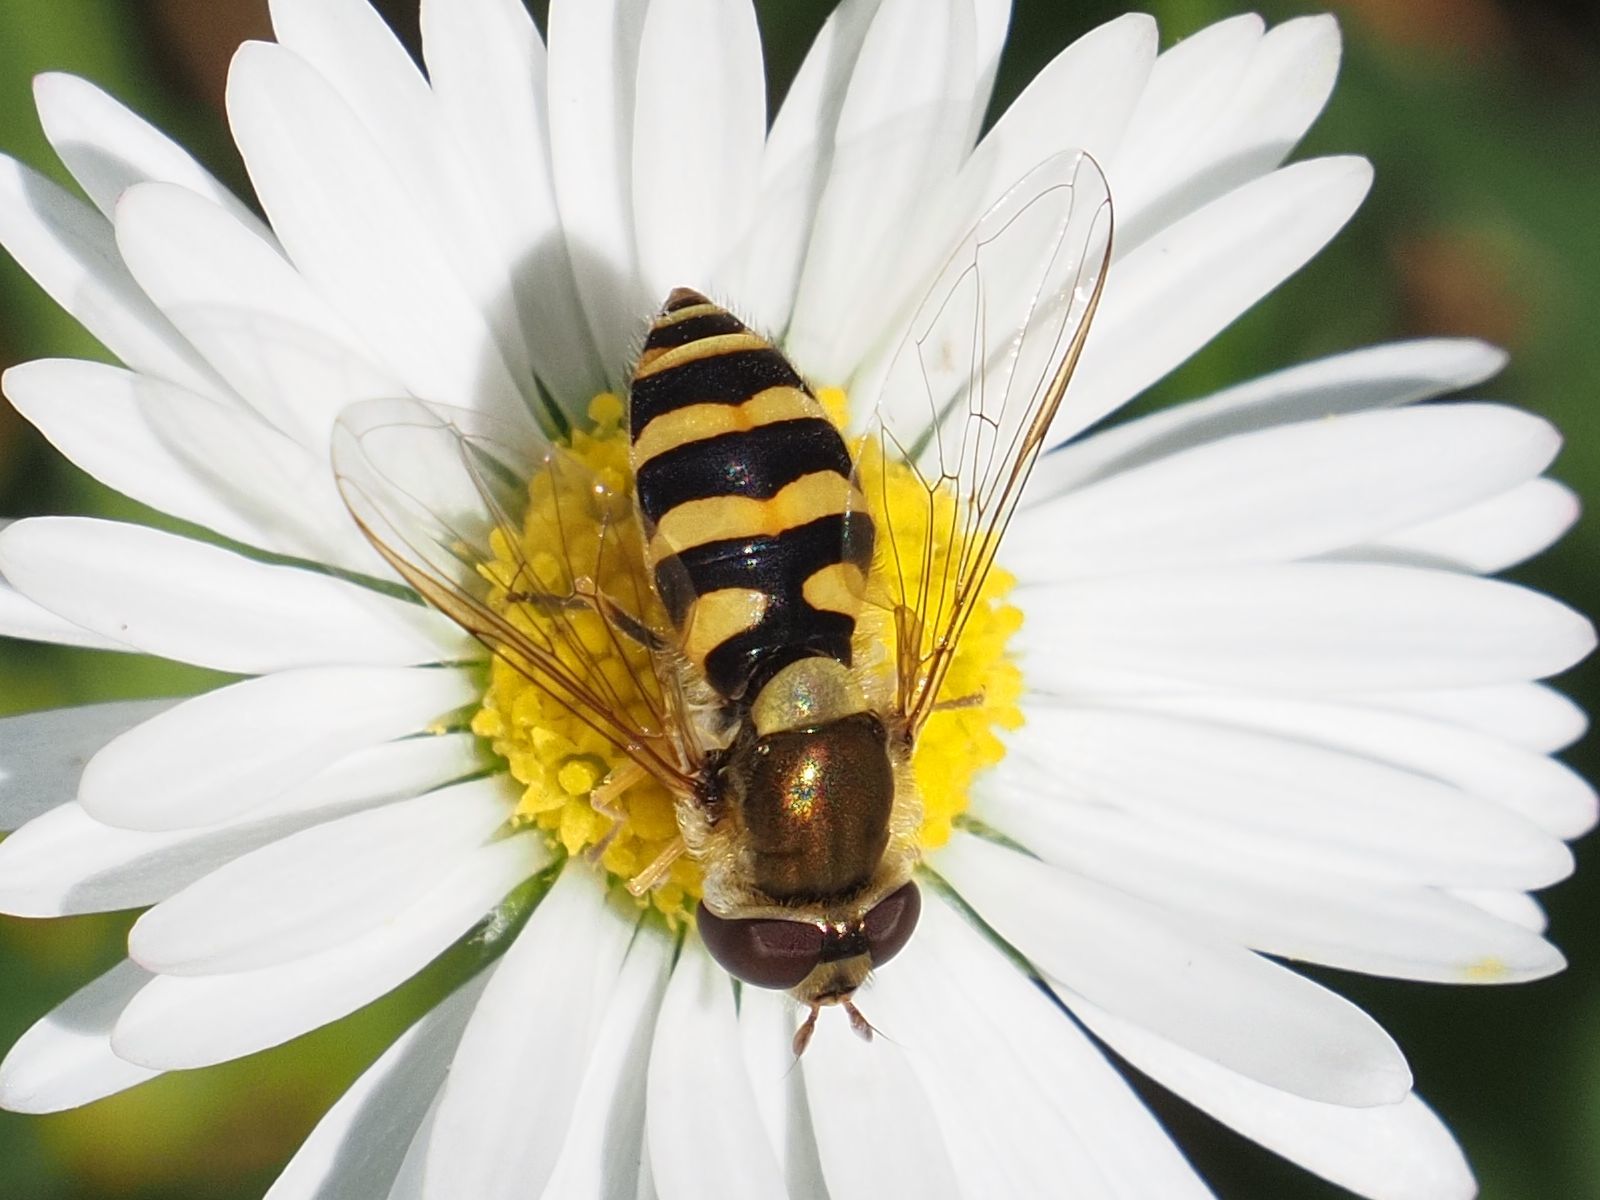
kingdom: Animalia
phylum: Arthropoda
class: Insecta
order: Diptera
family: Syrphidae
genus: Syrphus
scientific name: Syrphus vitripennis
